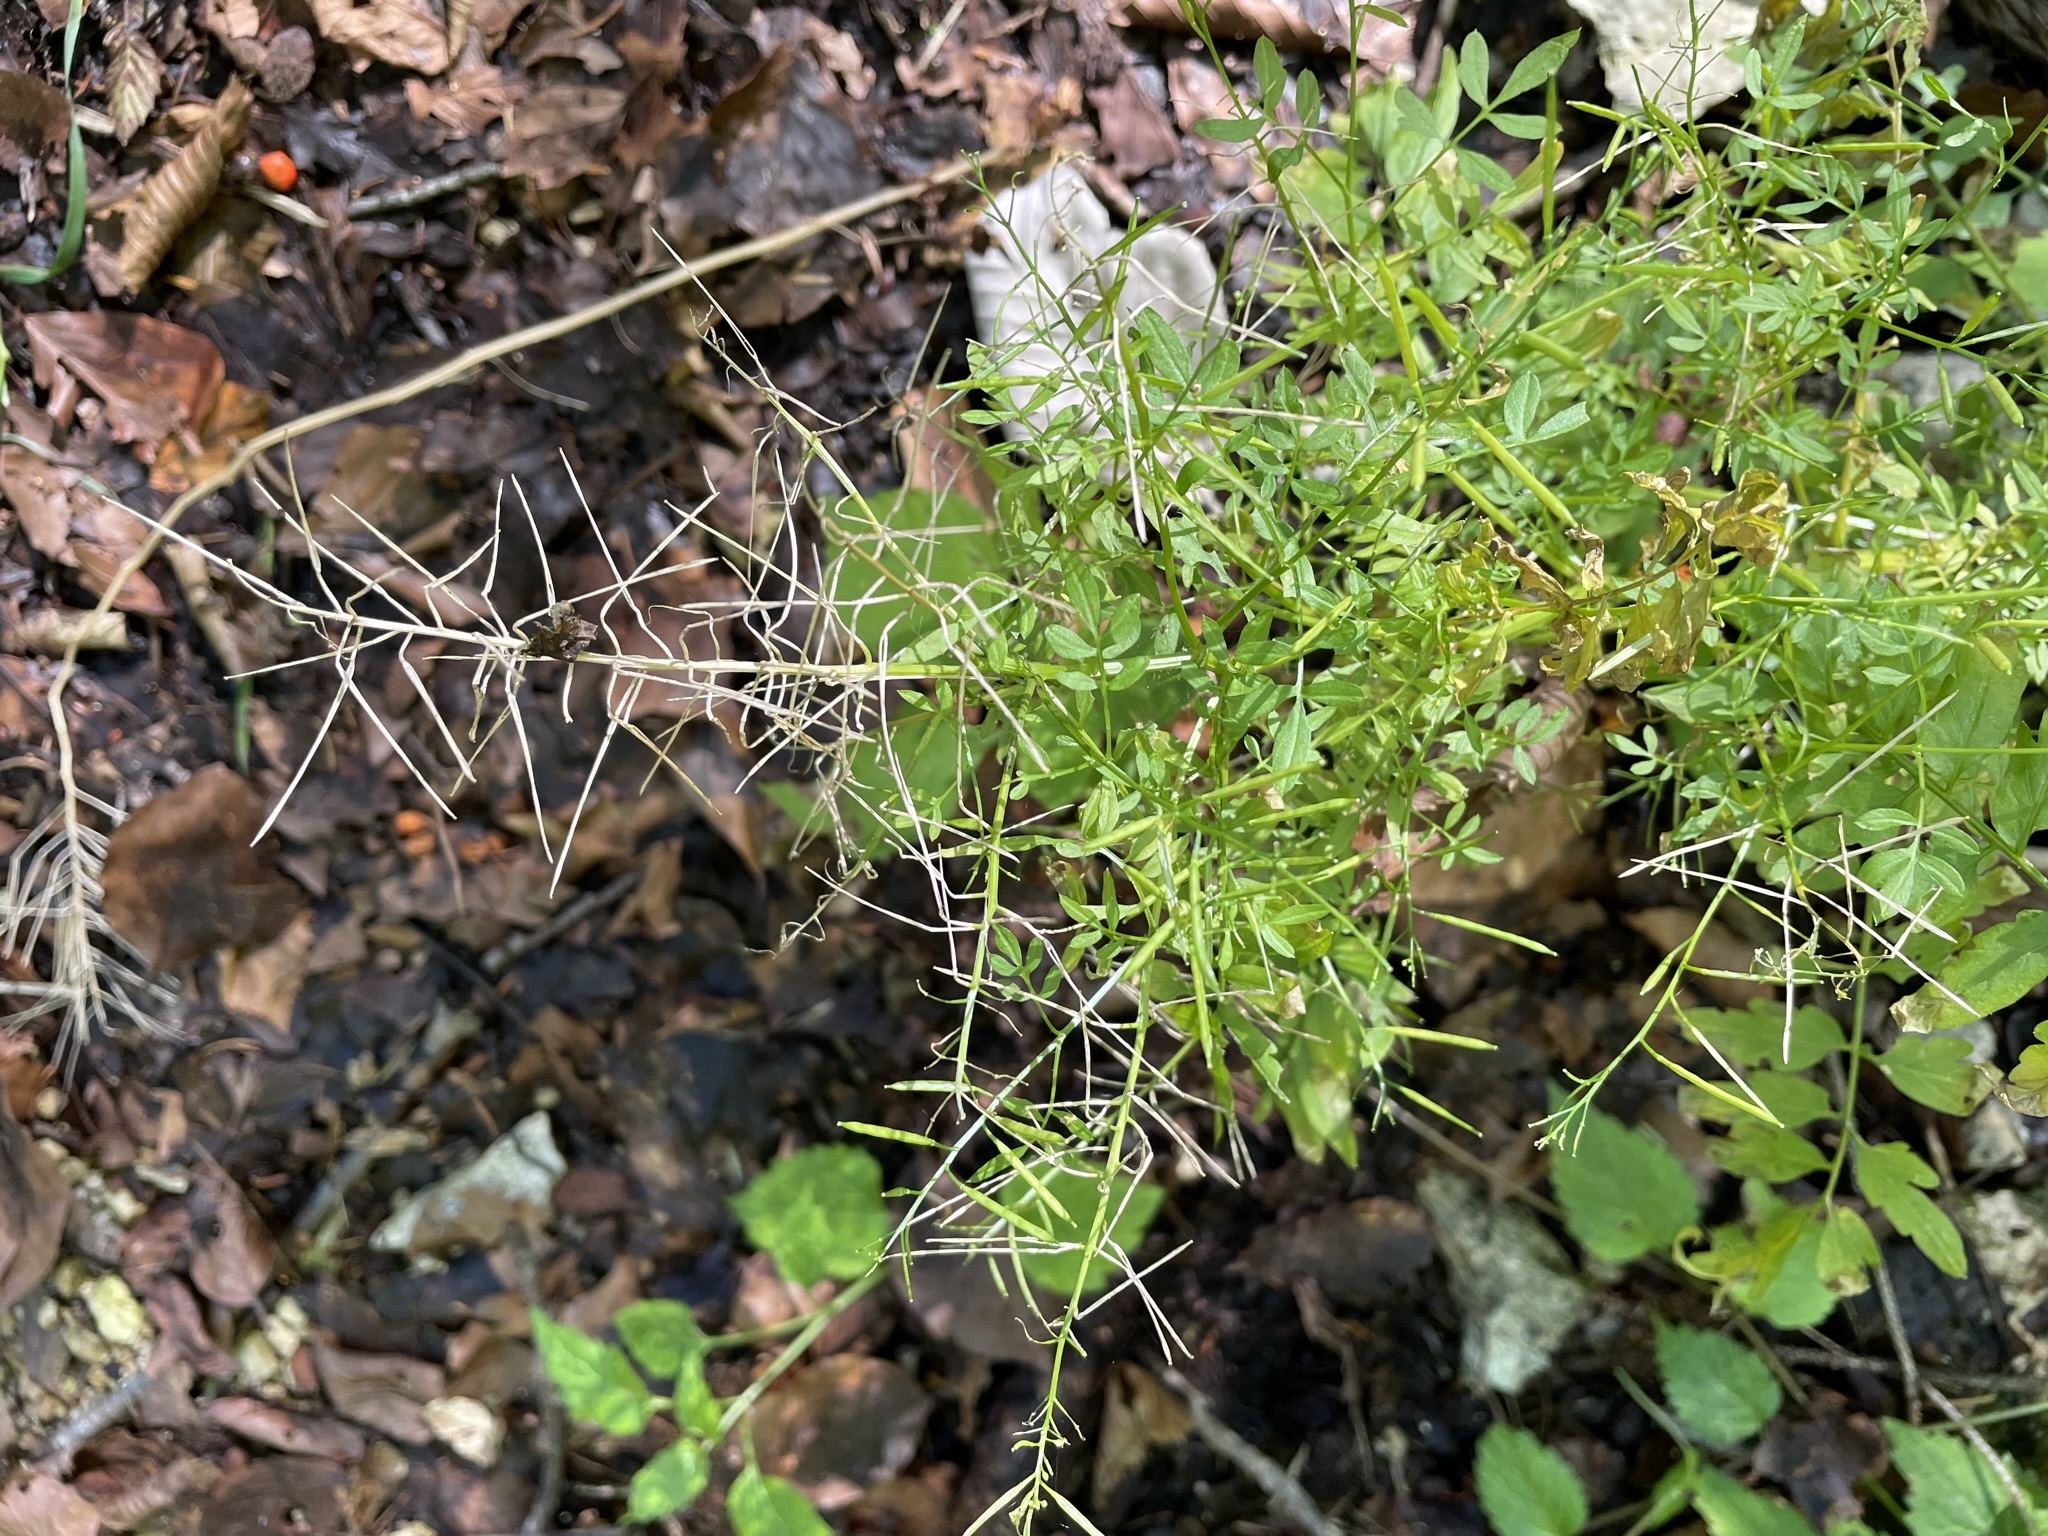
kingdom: Plantae
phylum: Tracheophyta
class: Magnoliopsida
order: Brassicales
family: Brassicaceae
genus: Cardamine
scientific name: Cardamine impatiens
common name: Narrow-leaved bitter-cress
